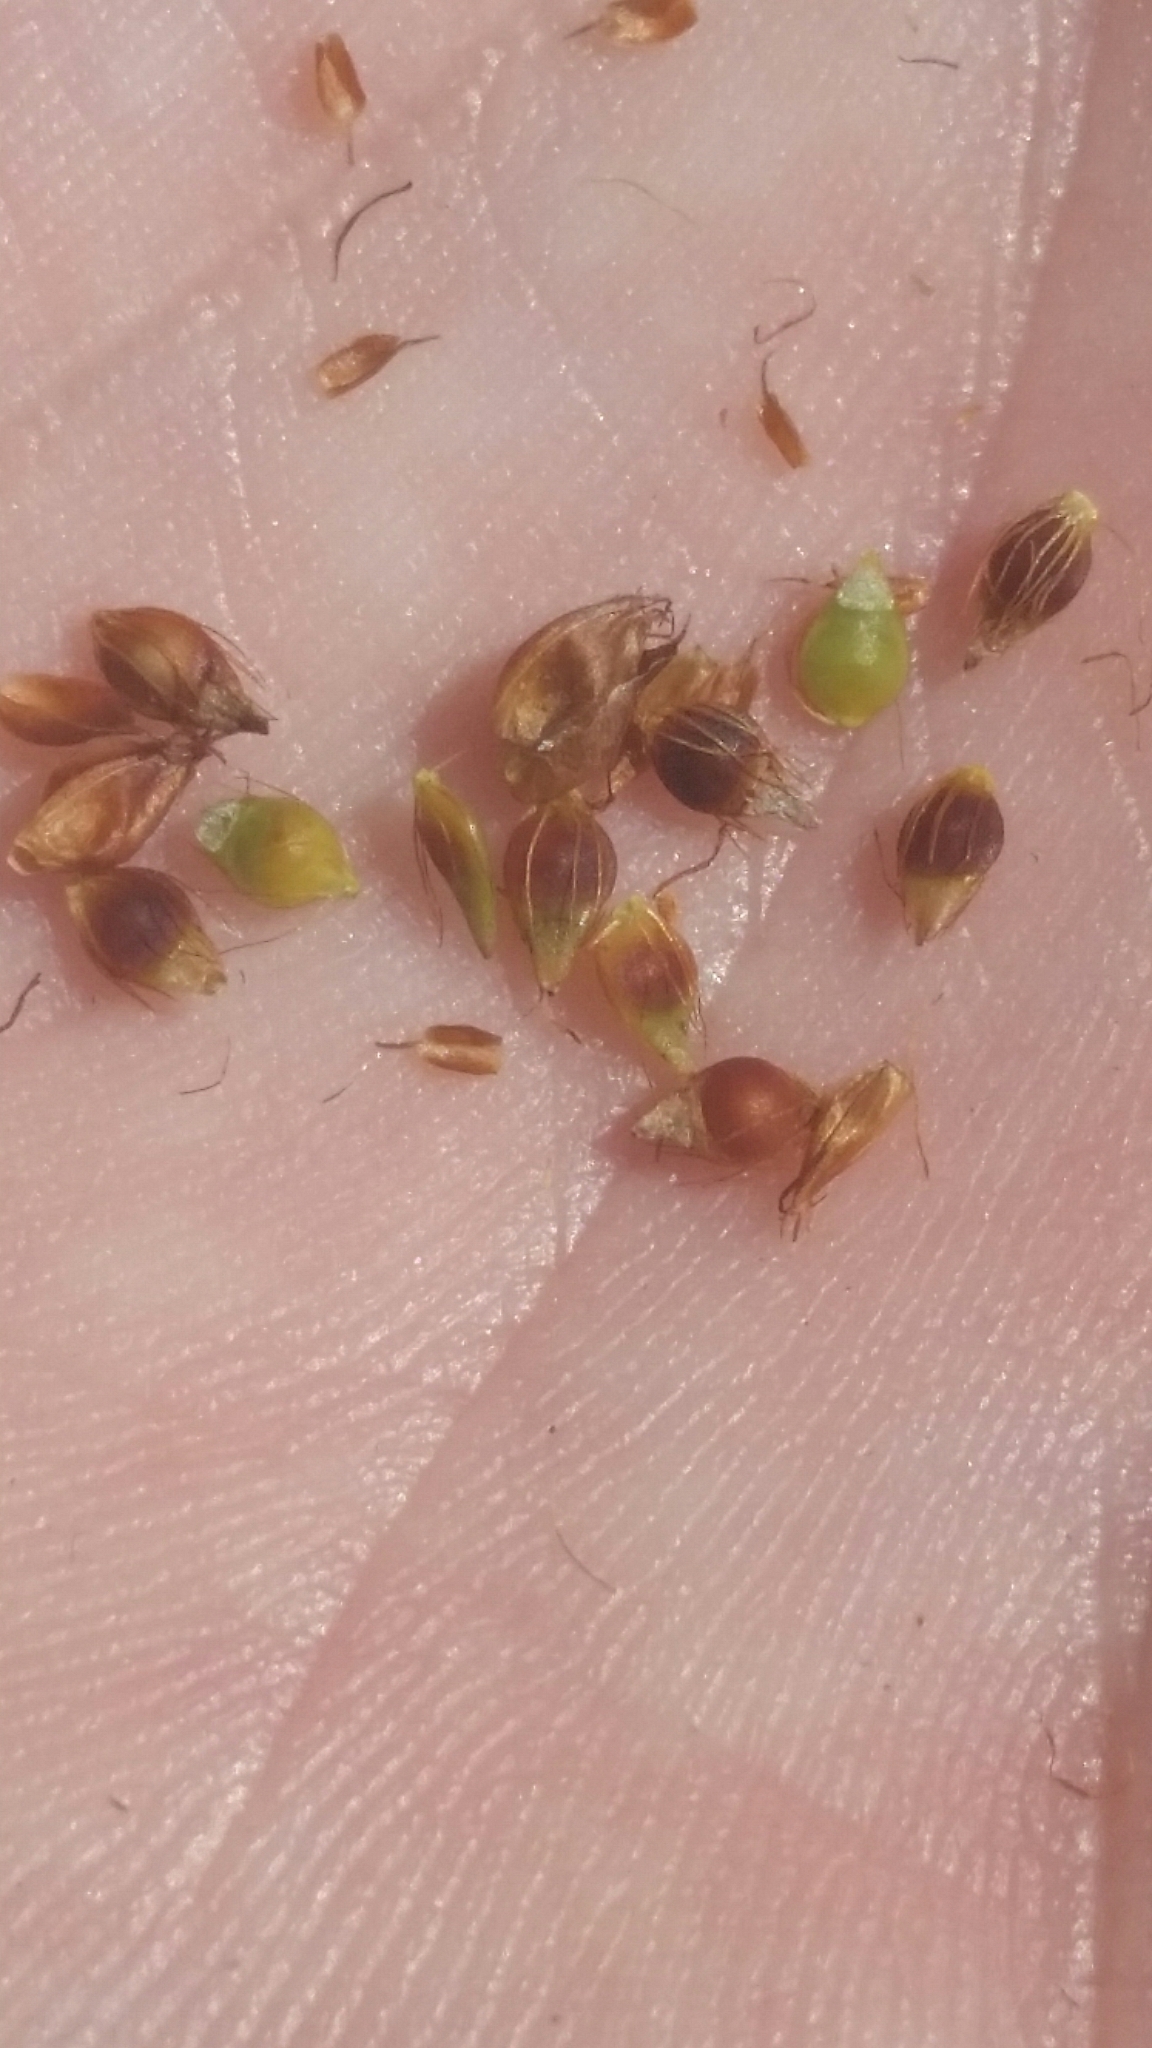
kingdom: Plantae
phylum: Tracheophyta
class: Liliopsida
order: Poales
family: Cyperaceae
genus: Rhynchospora
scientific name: Rhynchospora baldwinii
